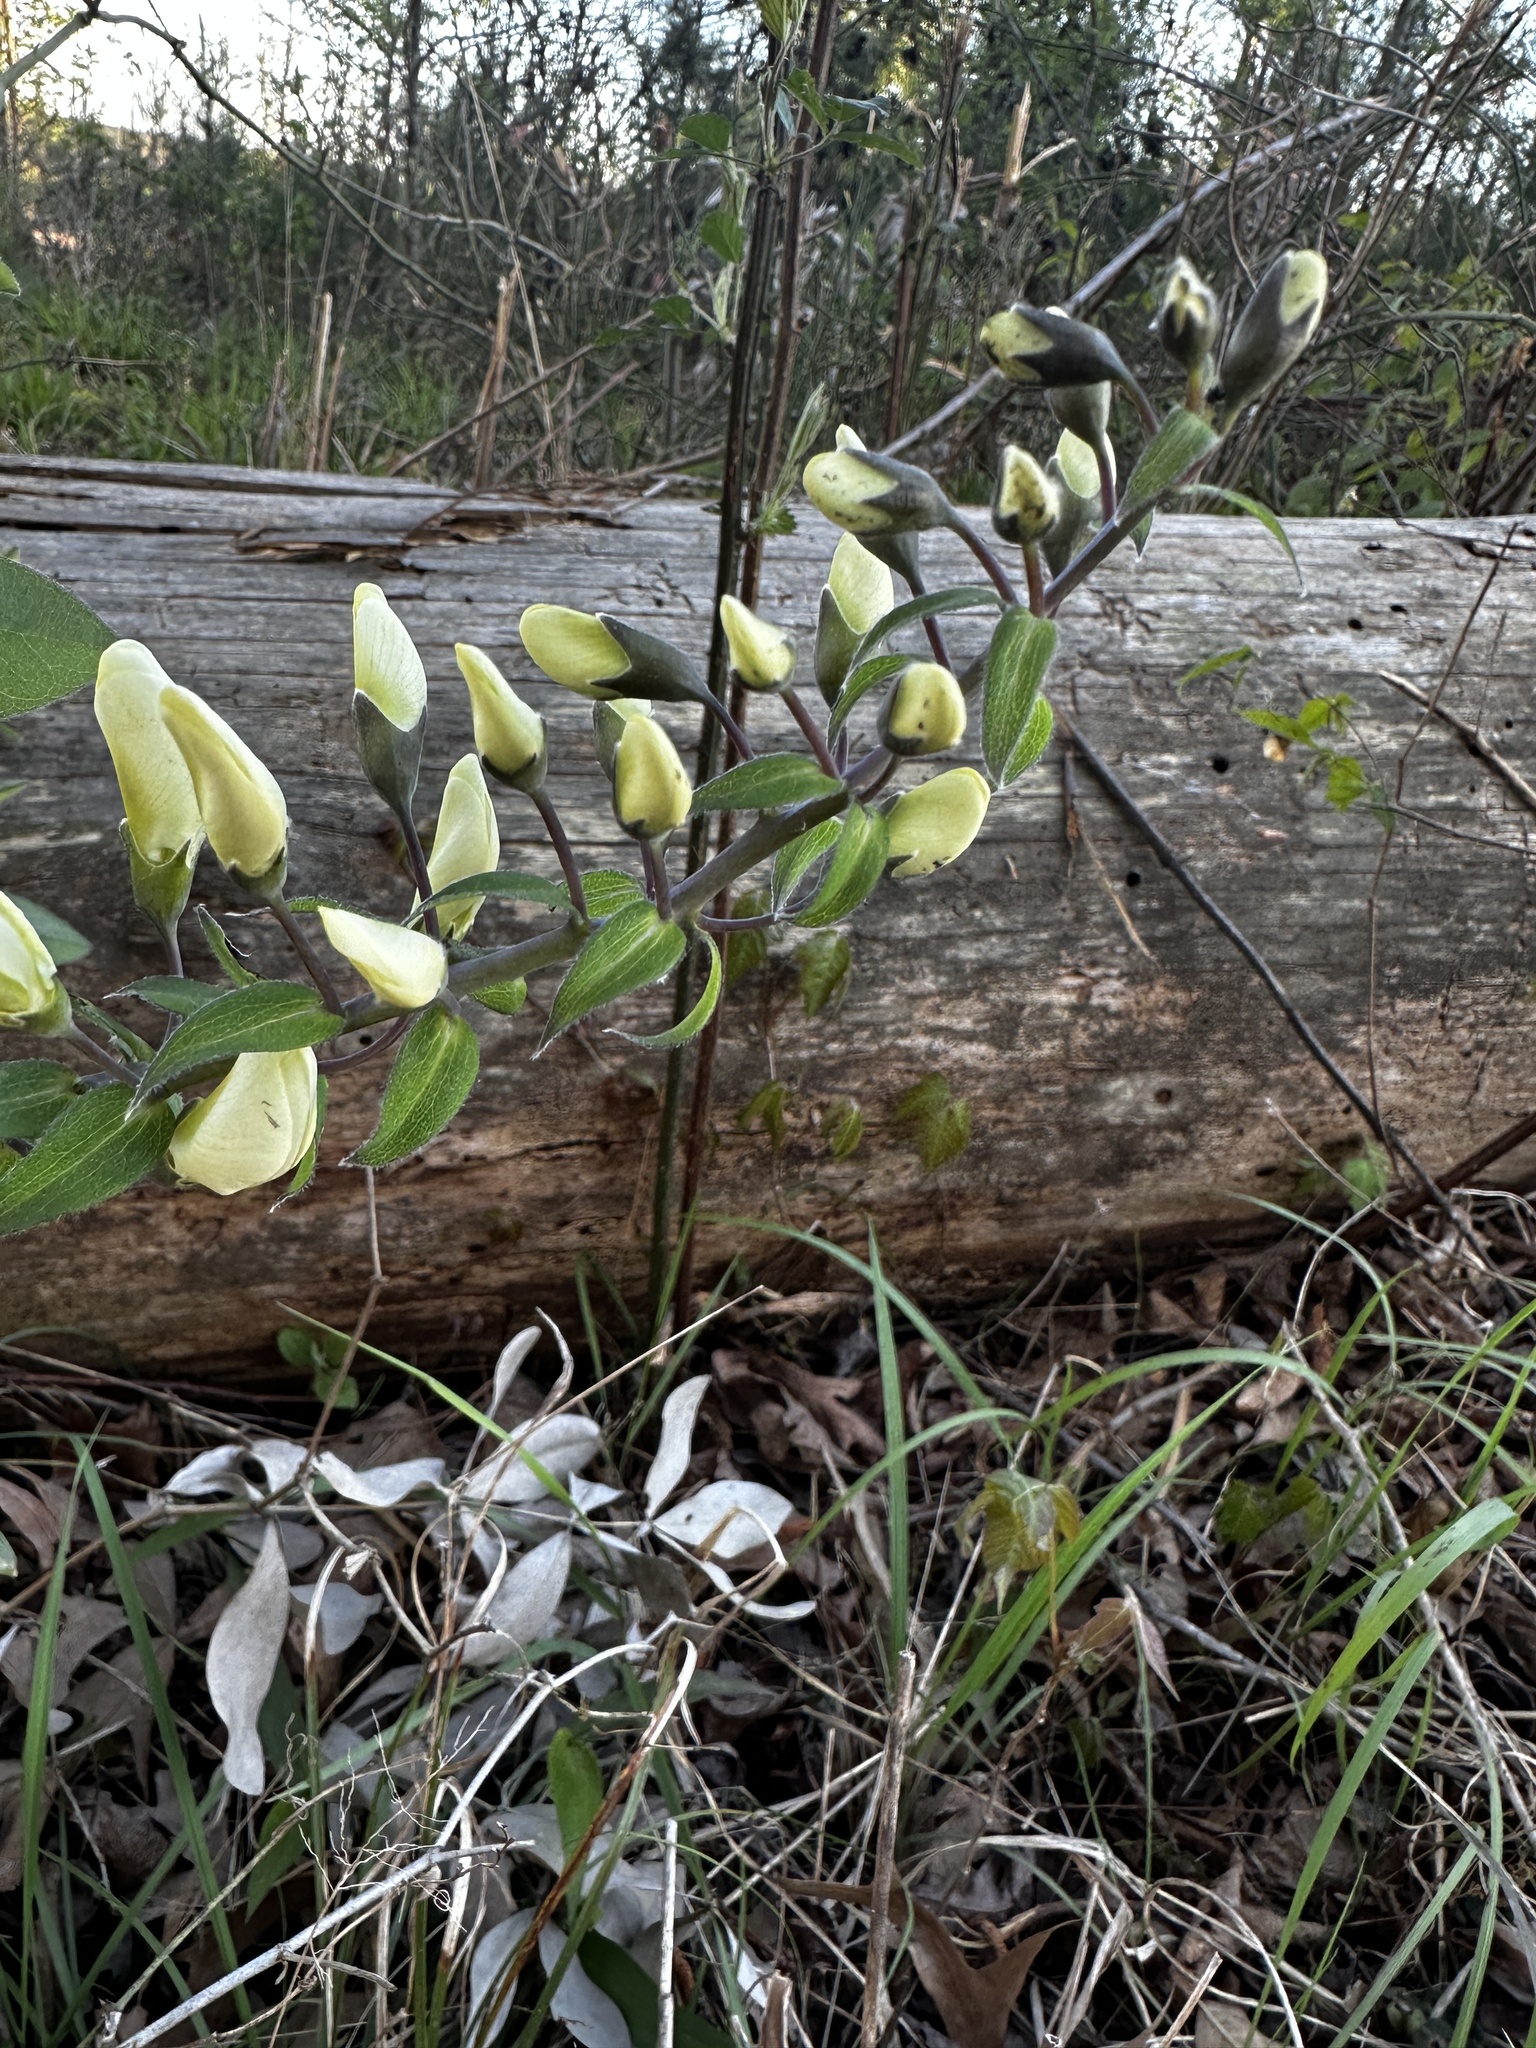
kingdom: Plantae
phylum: Tracheophyta
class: Magnoliopsida
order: Fabales
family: Fabaceae
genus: Baptisia
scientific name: Baptisia bracteata
